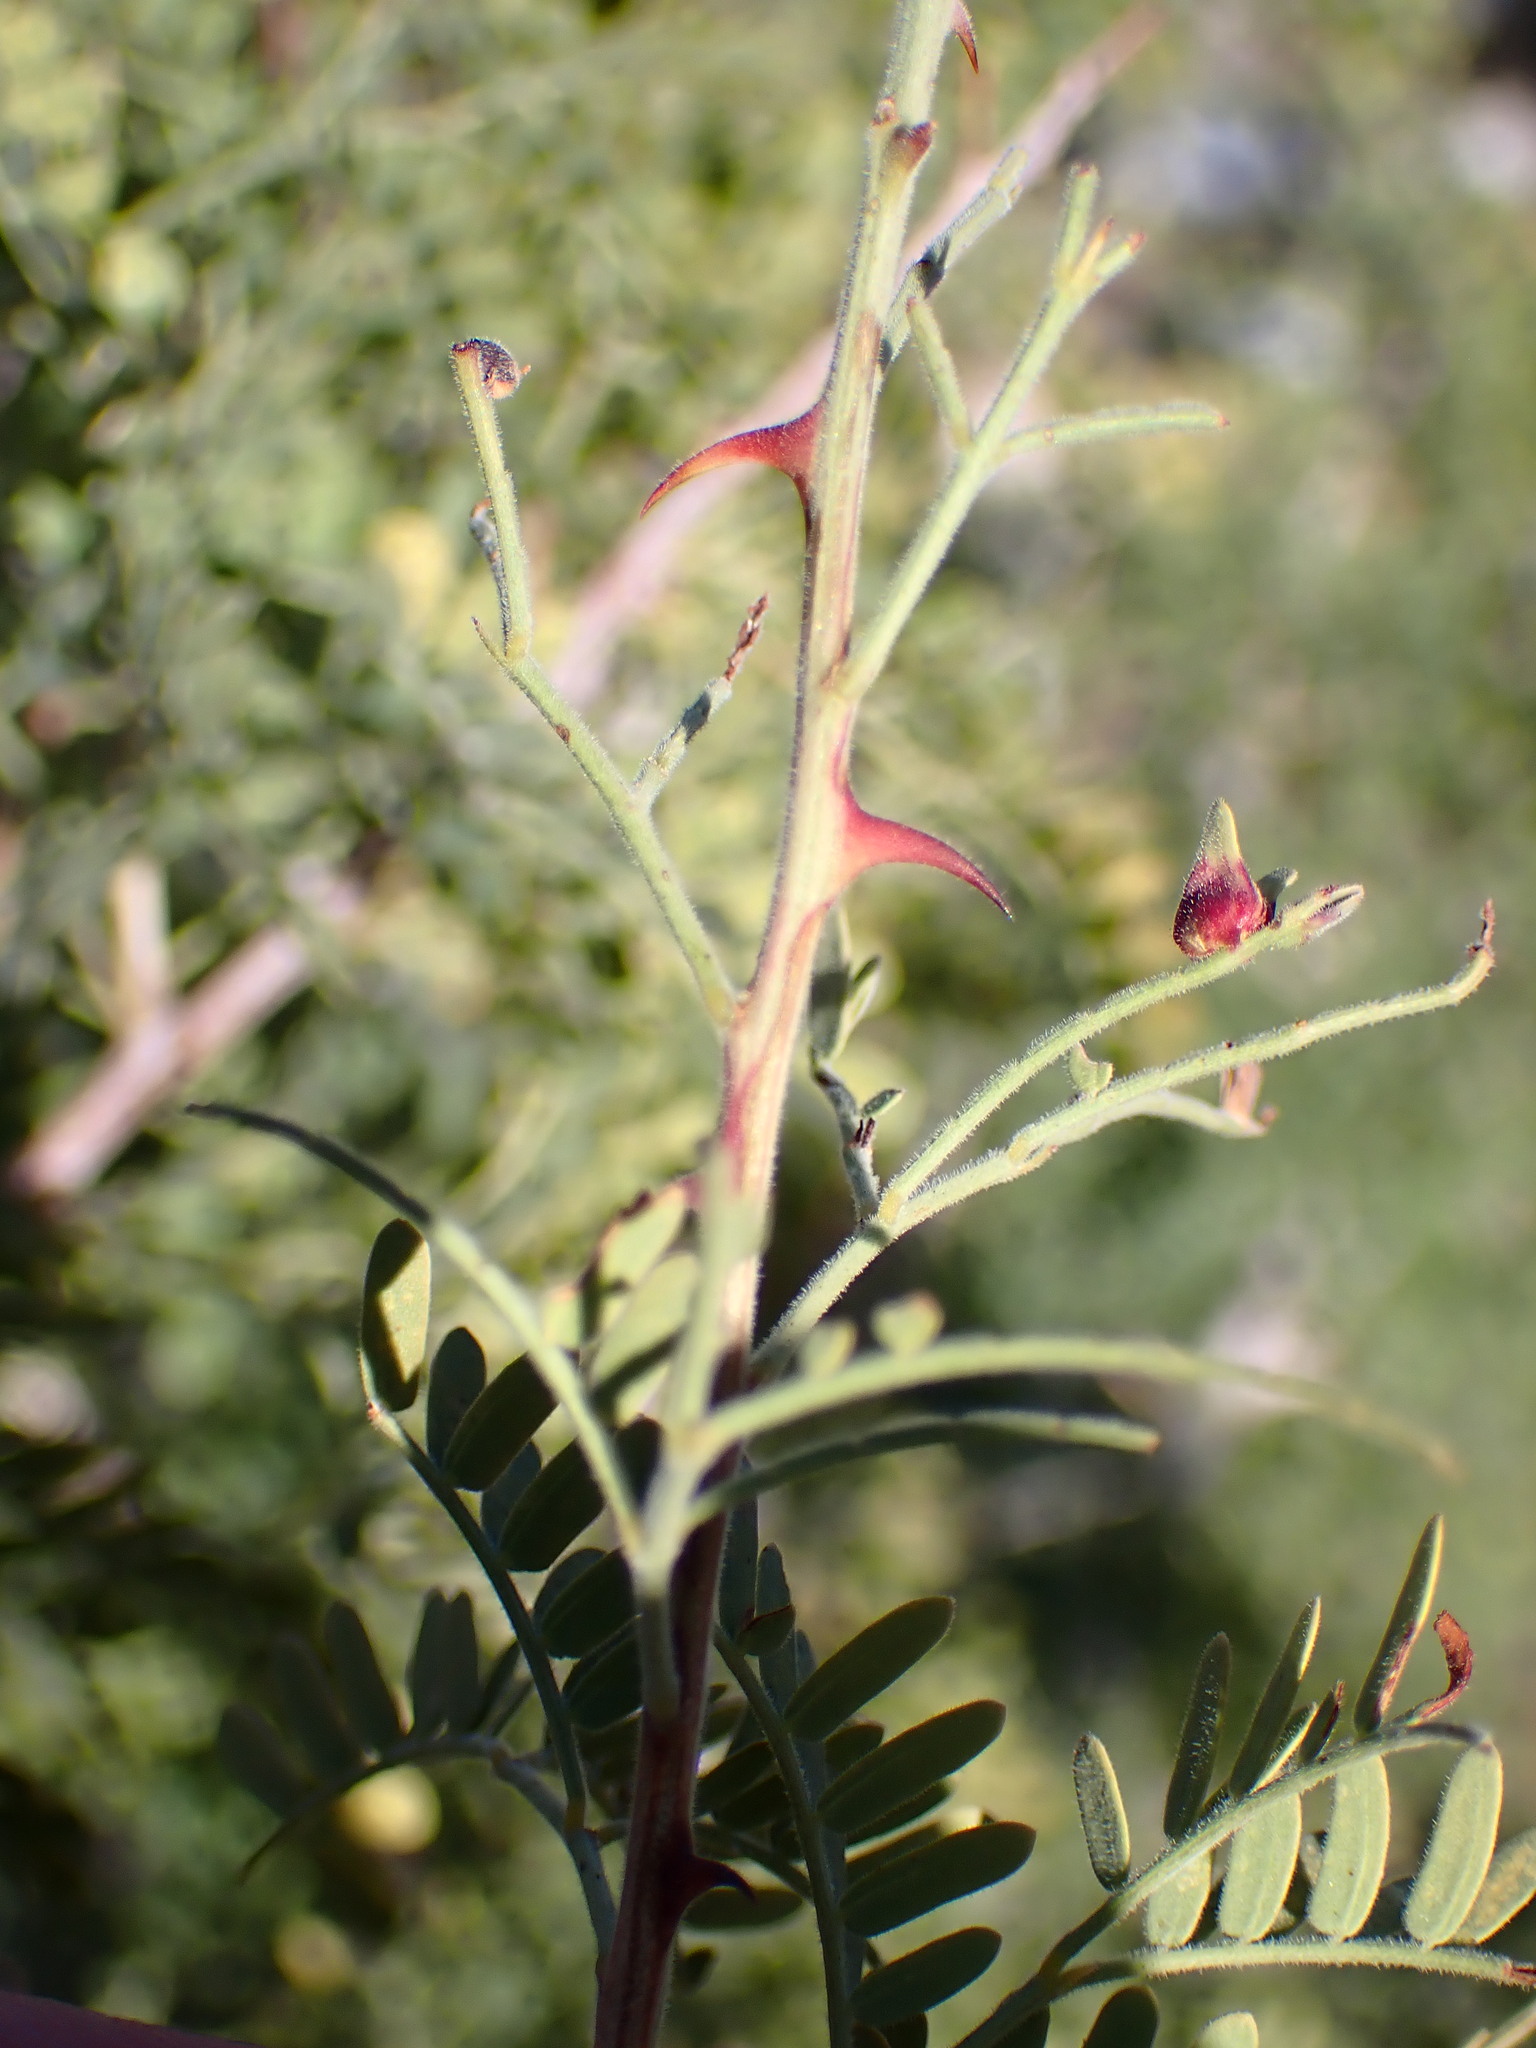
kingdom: Plantae
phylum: Tracheophyta
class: Magnoliopsida
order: Fabales
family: Fabaceae
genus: Senegalia
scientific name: Senegalia greggii
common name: Texas-mimosa
